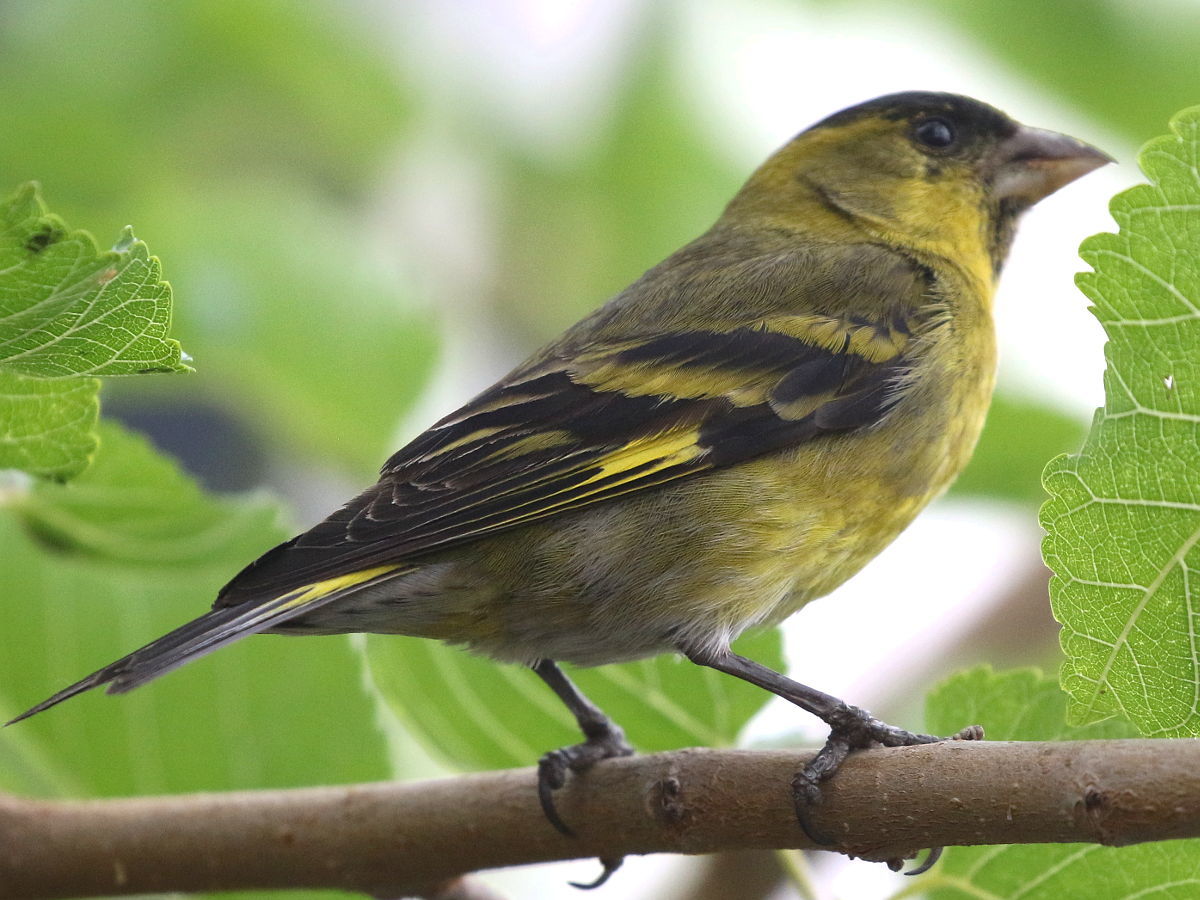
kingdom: Animalia
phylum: Chordata
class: Aves
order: Passeriformes
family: Fringillidae
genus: Spinus
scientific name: Spinus barbatus
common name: Black-chinned siskin
